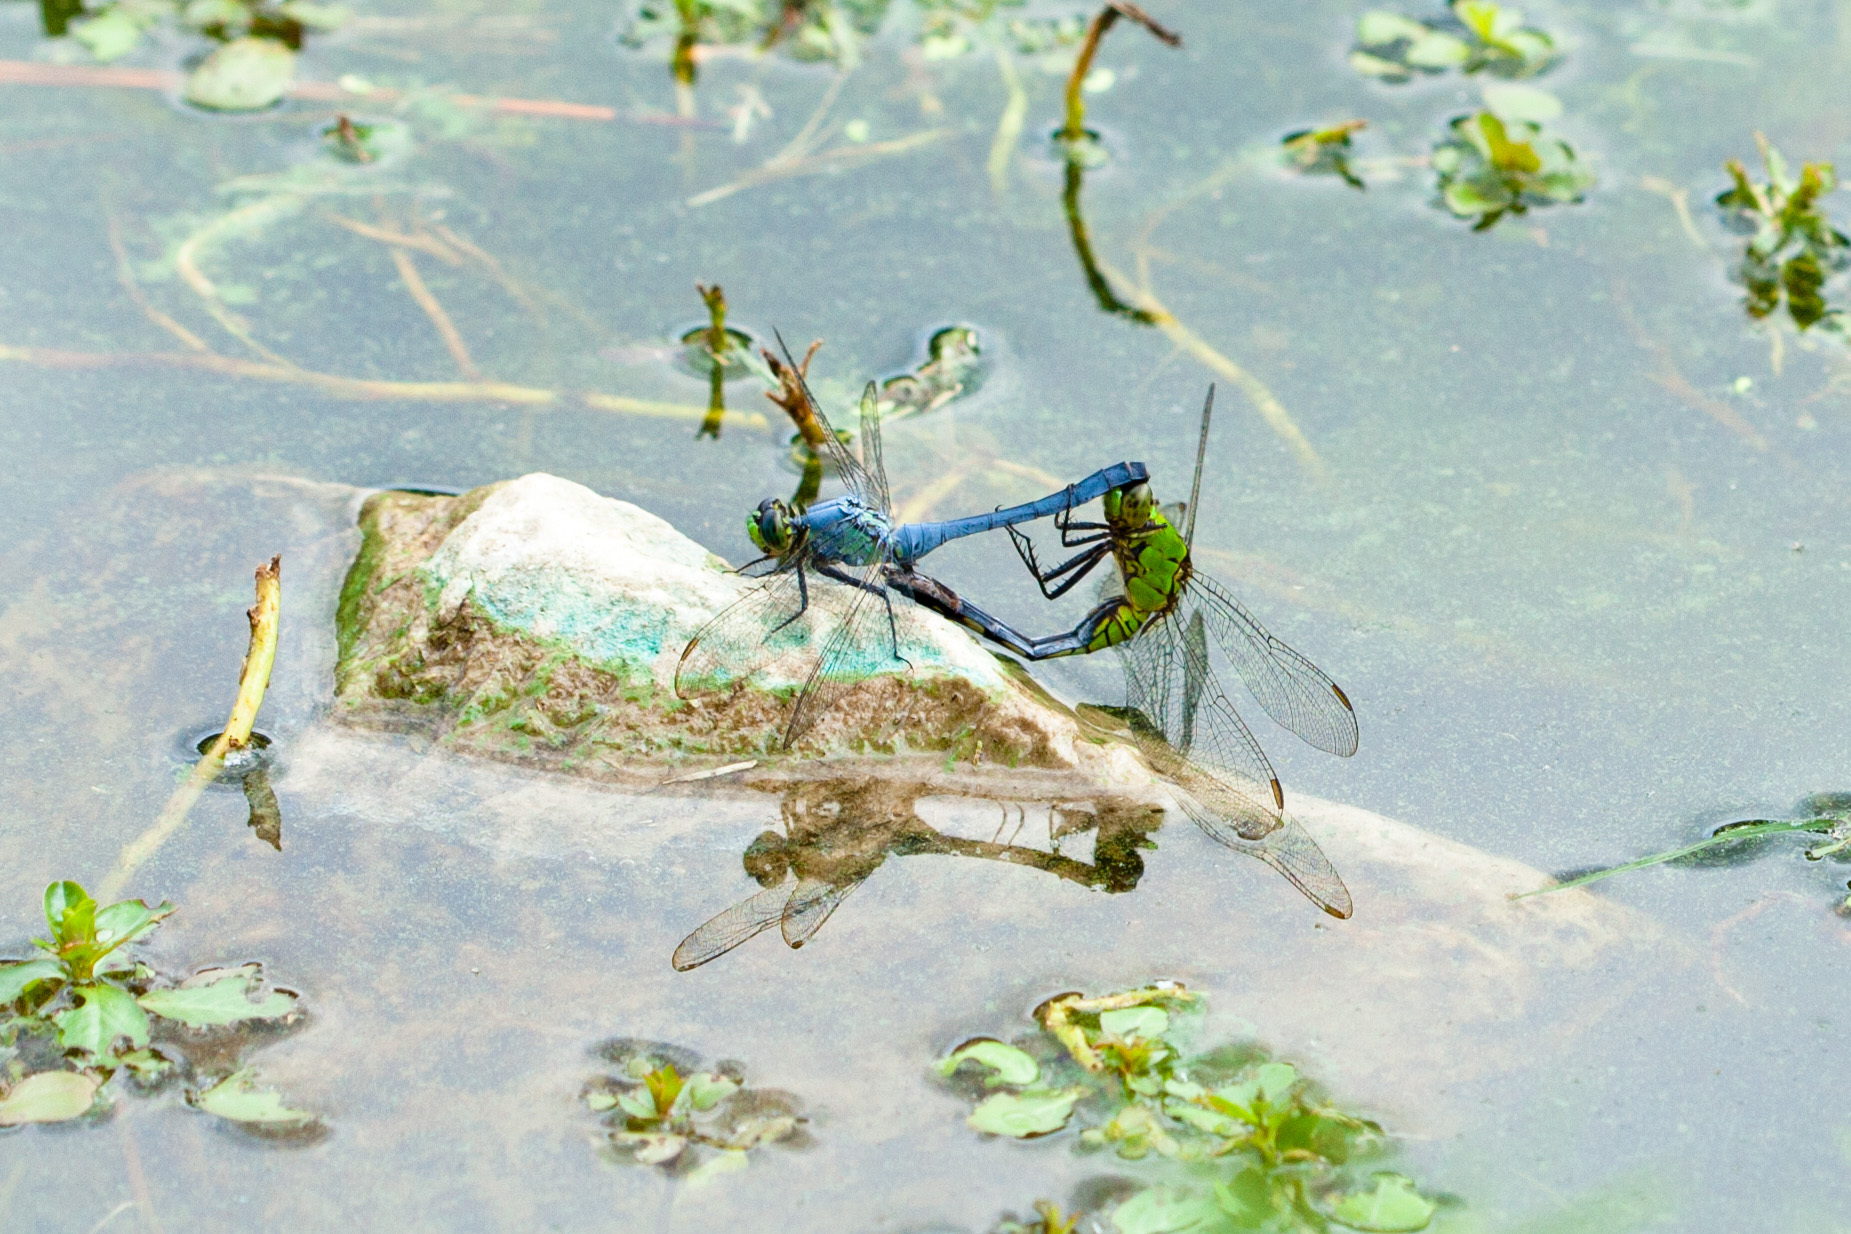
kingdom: Animalia
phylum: Arthropoda
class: Insecta
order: Odonata
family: Libellulidae
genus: Erythemis
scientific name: Erythemis simplicicollis
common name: Eastern pondhawk
